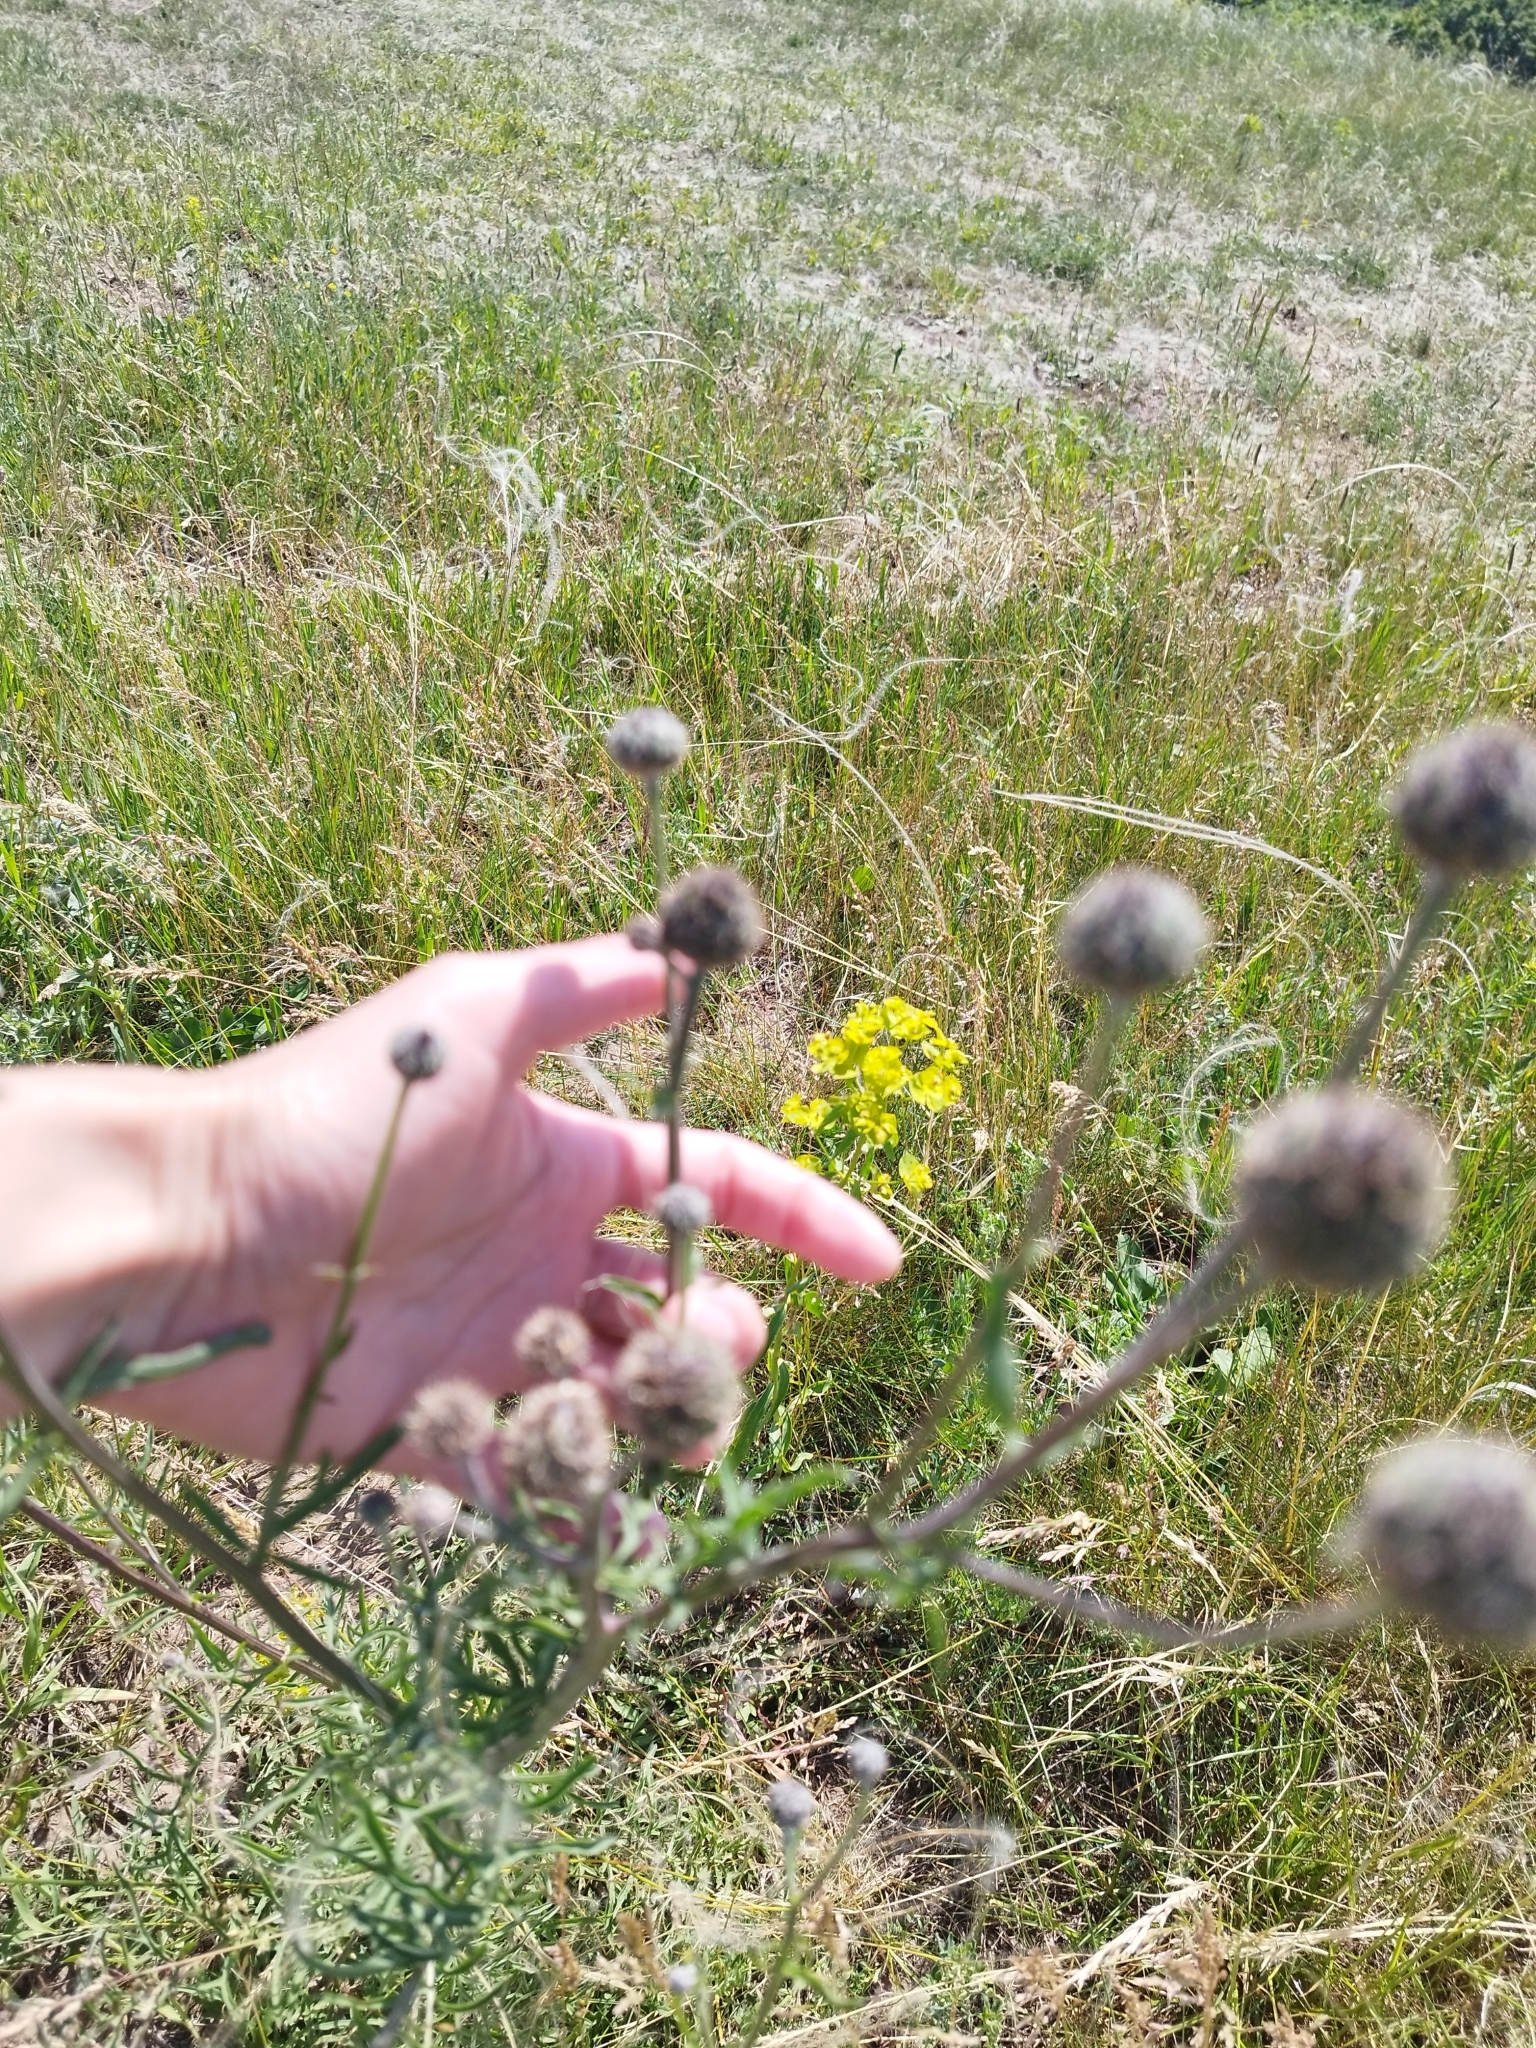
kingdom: Plantae
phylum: Tracheophyta
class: Magnoliopsida
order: Asterales
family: Asteraceae
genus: Centaurea
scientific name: Centaurea scabiosa
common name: Greater knapweed
